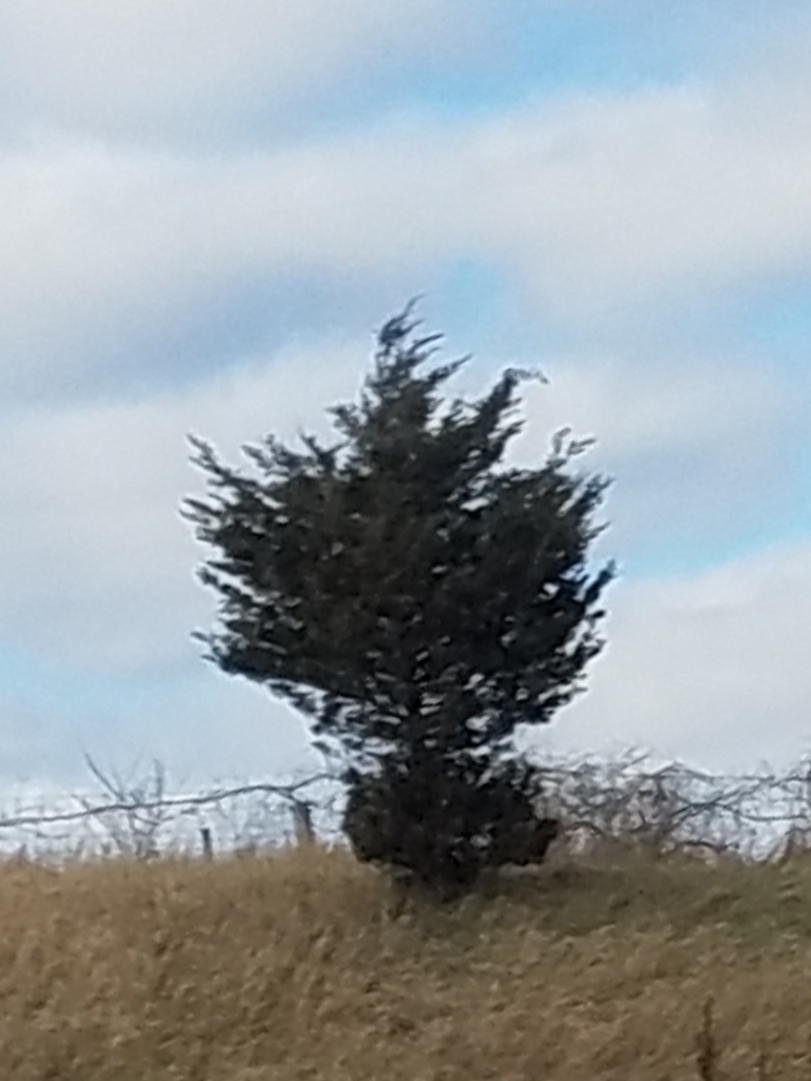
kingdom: Plantae
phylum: Tracheophyta
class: Pinopsida
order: Pinales
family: Cupressaceae
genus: Juniperus
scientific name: Juniperus virginiana
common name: Red juniper
